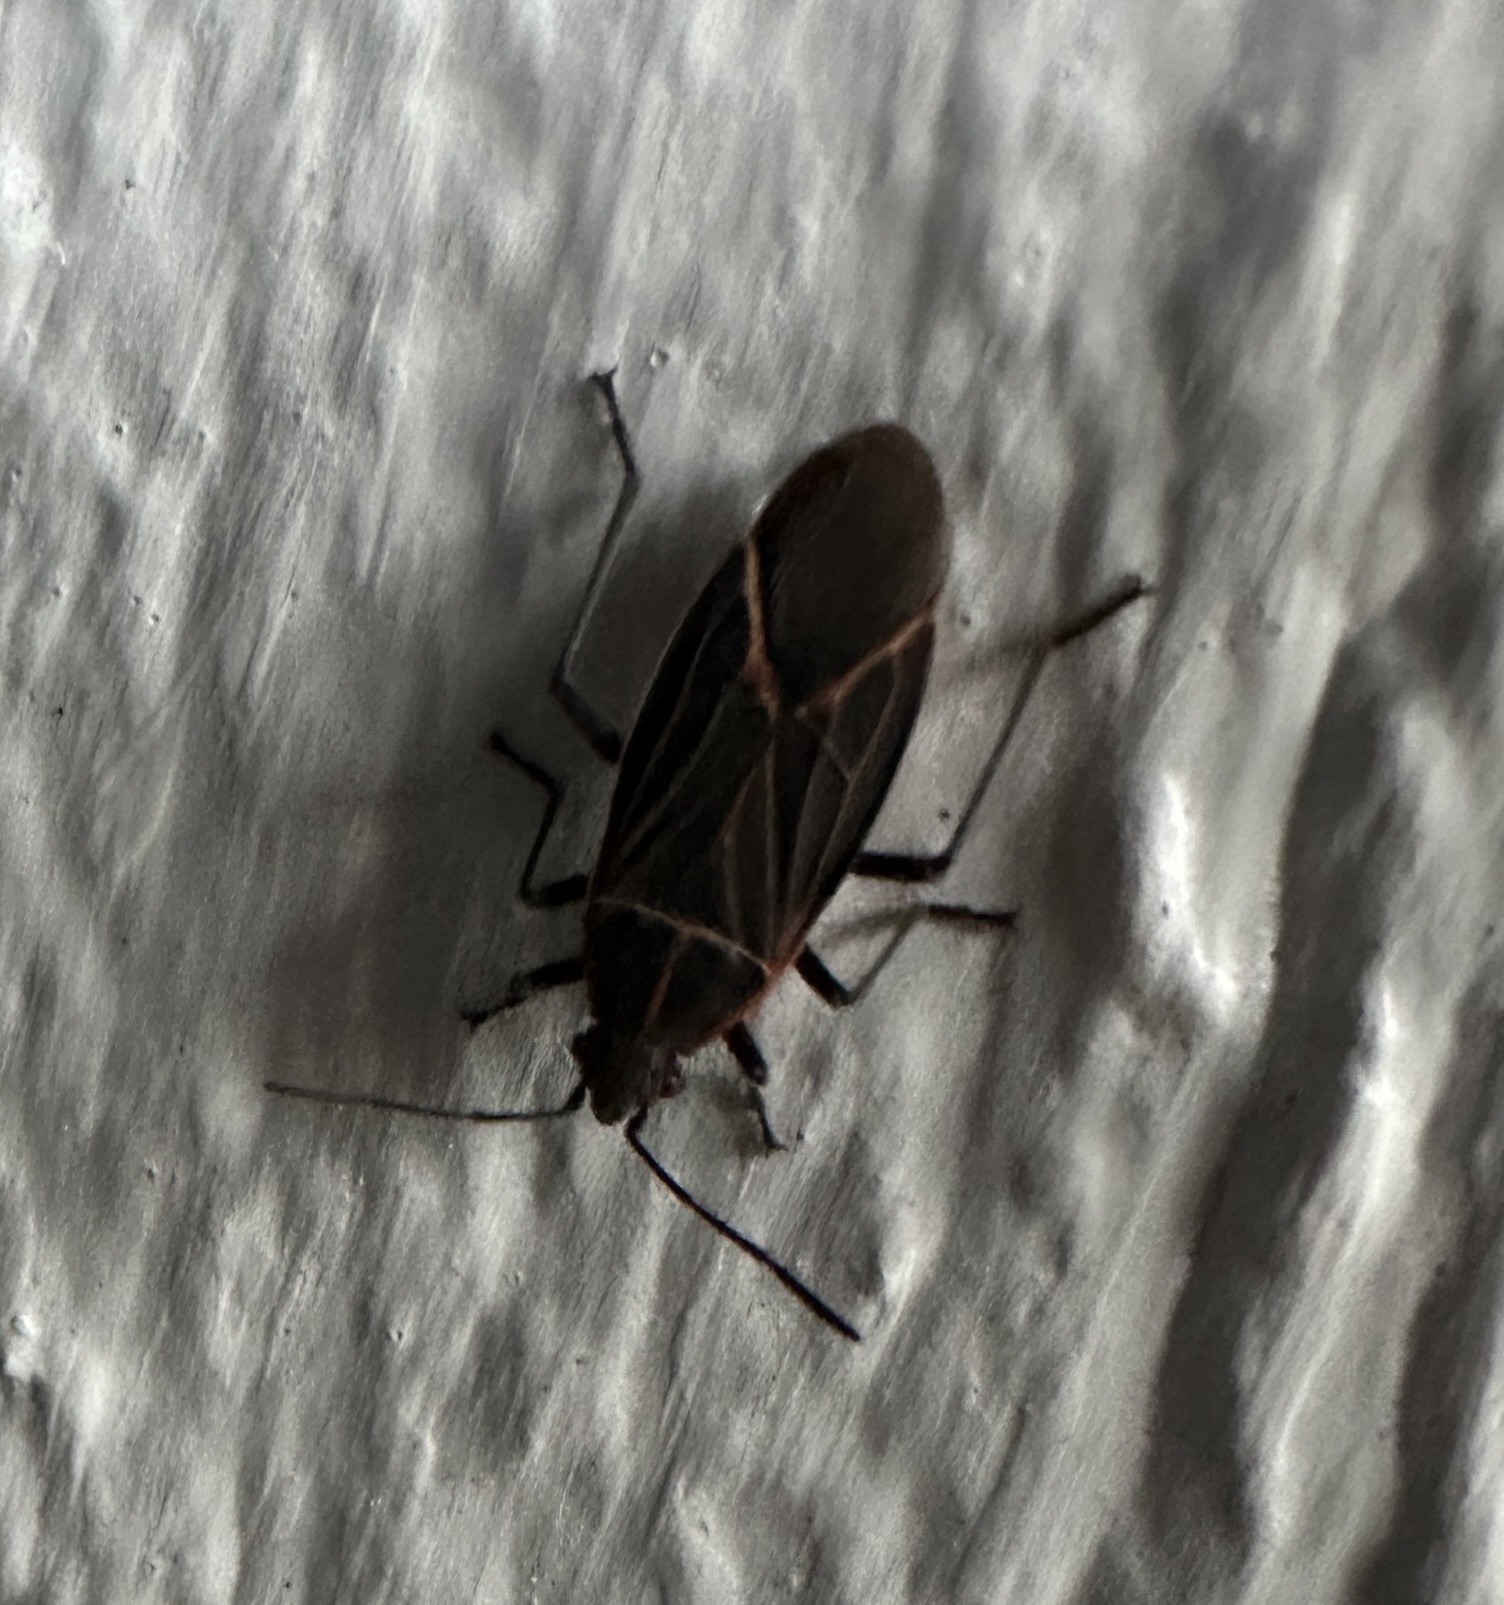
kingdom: Animalia
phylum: Arthropoda
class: Insecta
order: Hemiptera
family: Rhopalidae
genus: Boisea
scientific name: Boisea rubrolineata
